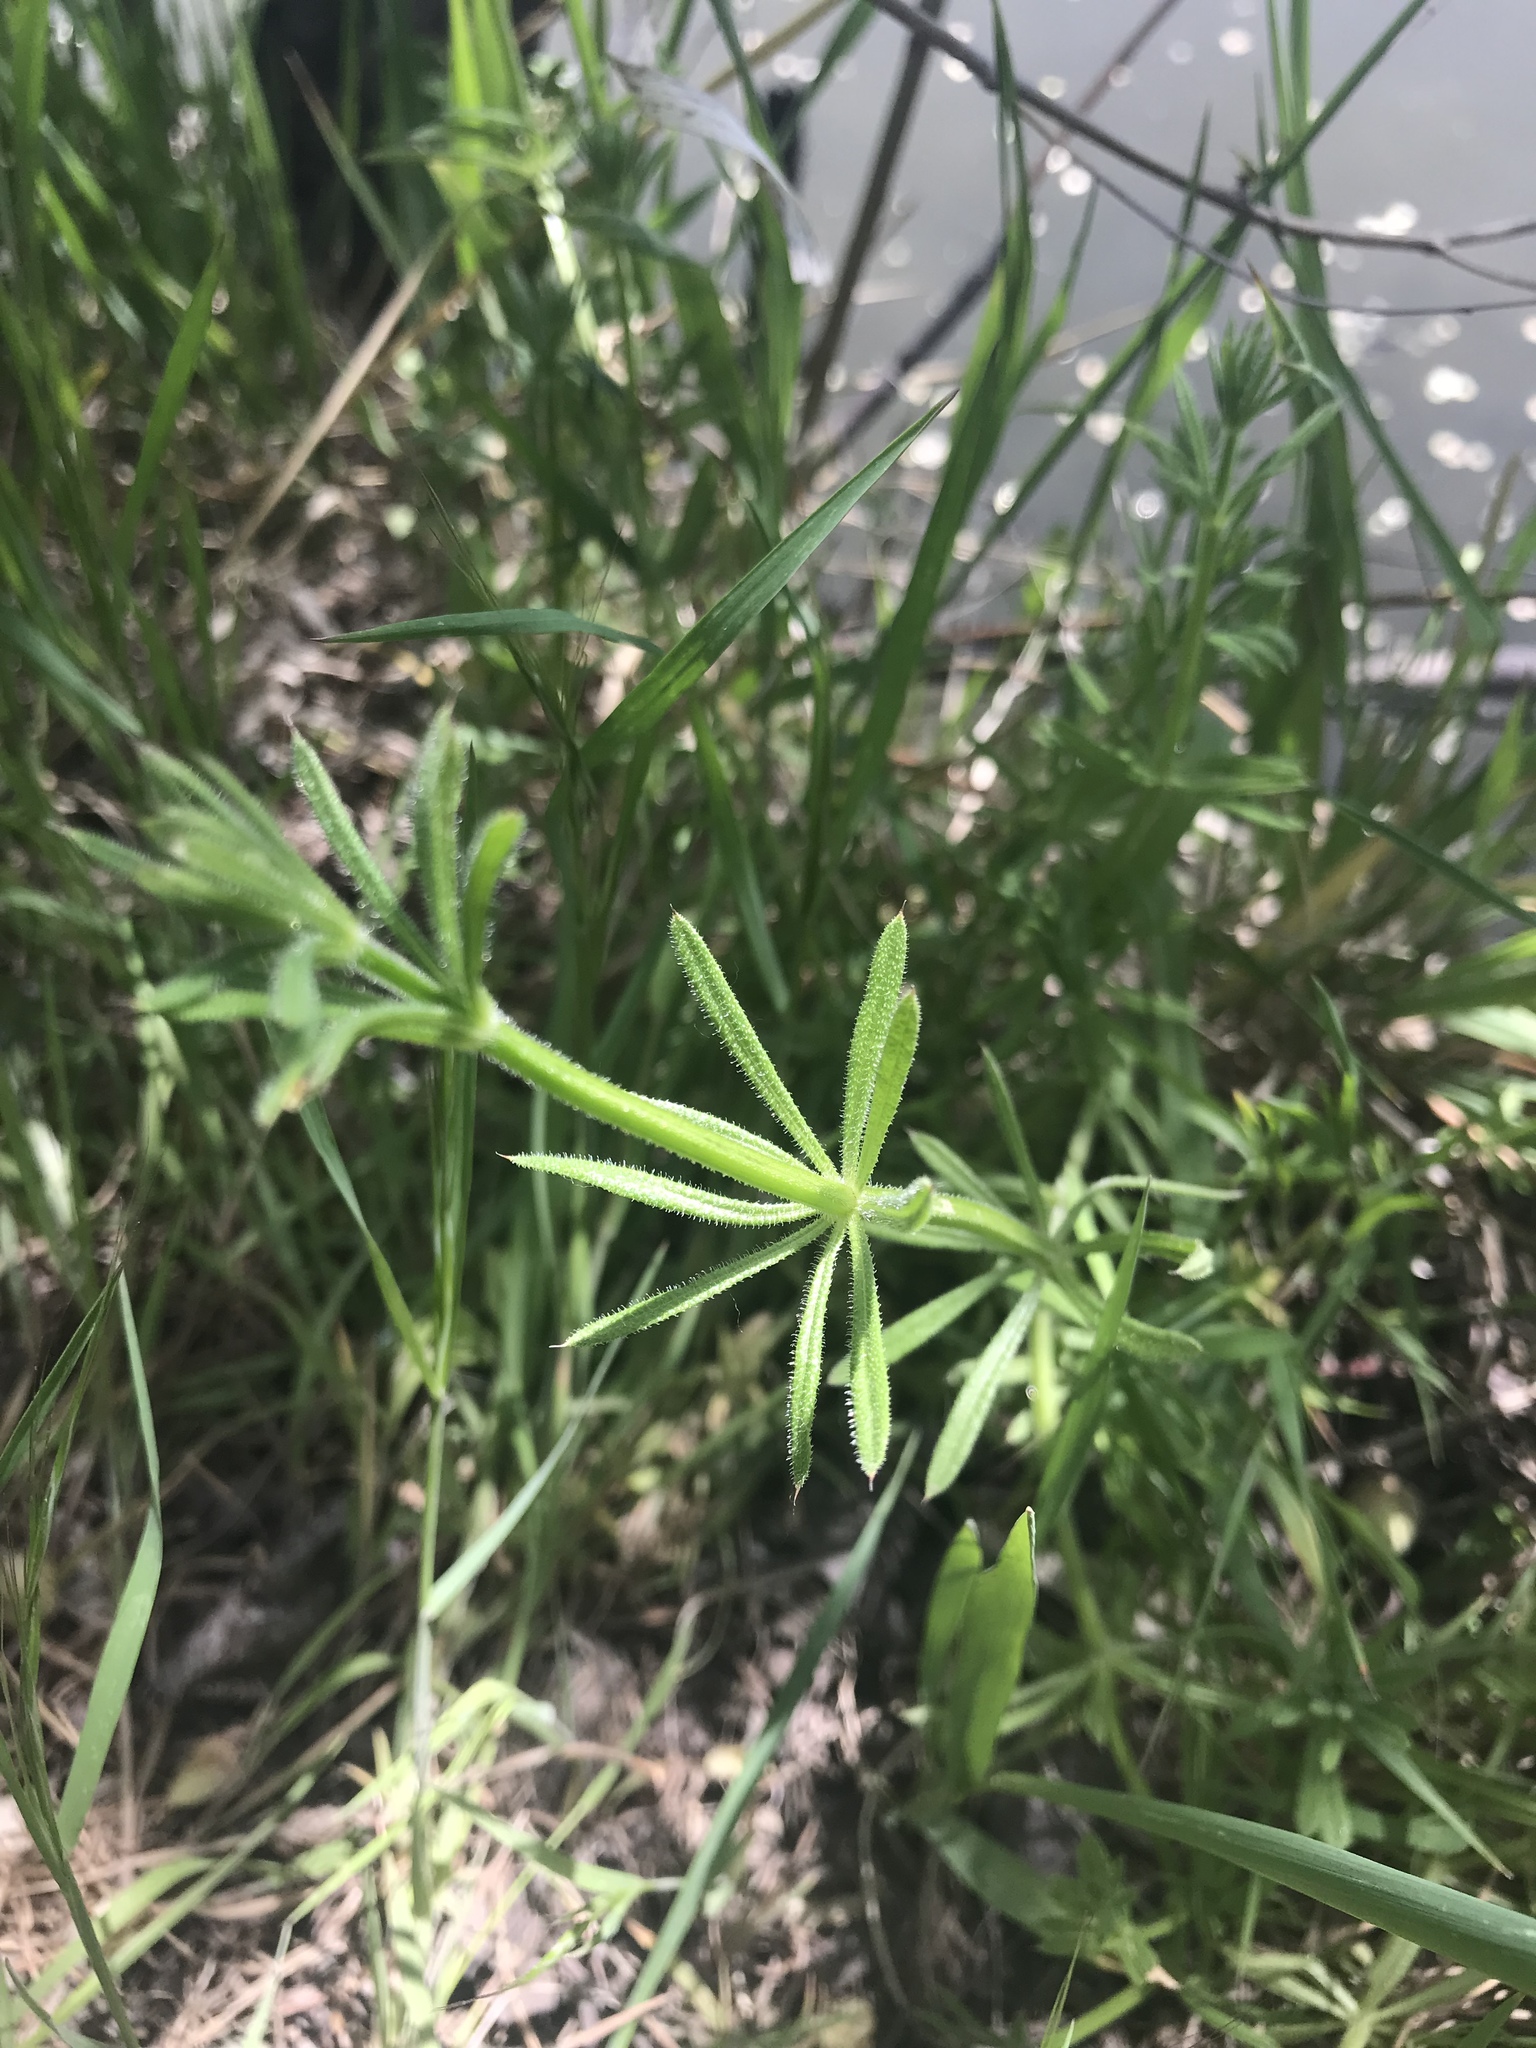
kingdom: Plantae
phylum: Tracheophyta
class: Magnoliopsida
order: Gentianales
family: Rubiaceae
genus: Galium
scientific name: Galium aparine
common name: Cleavers
